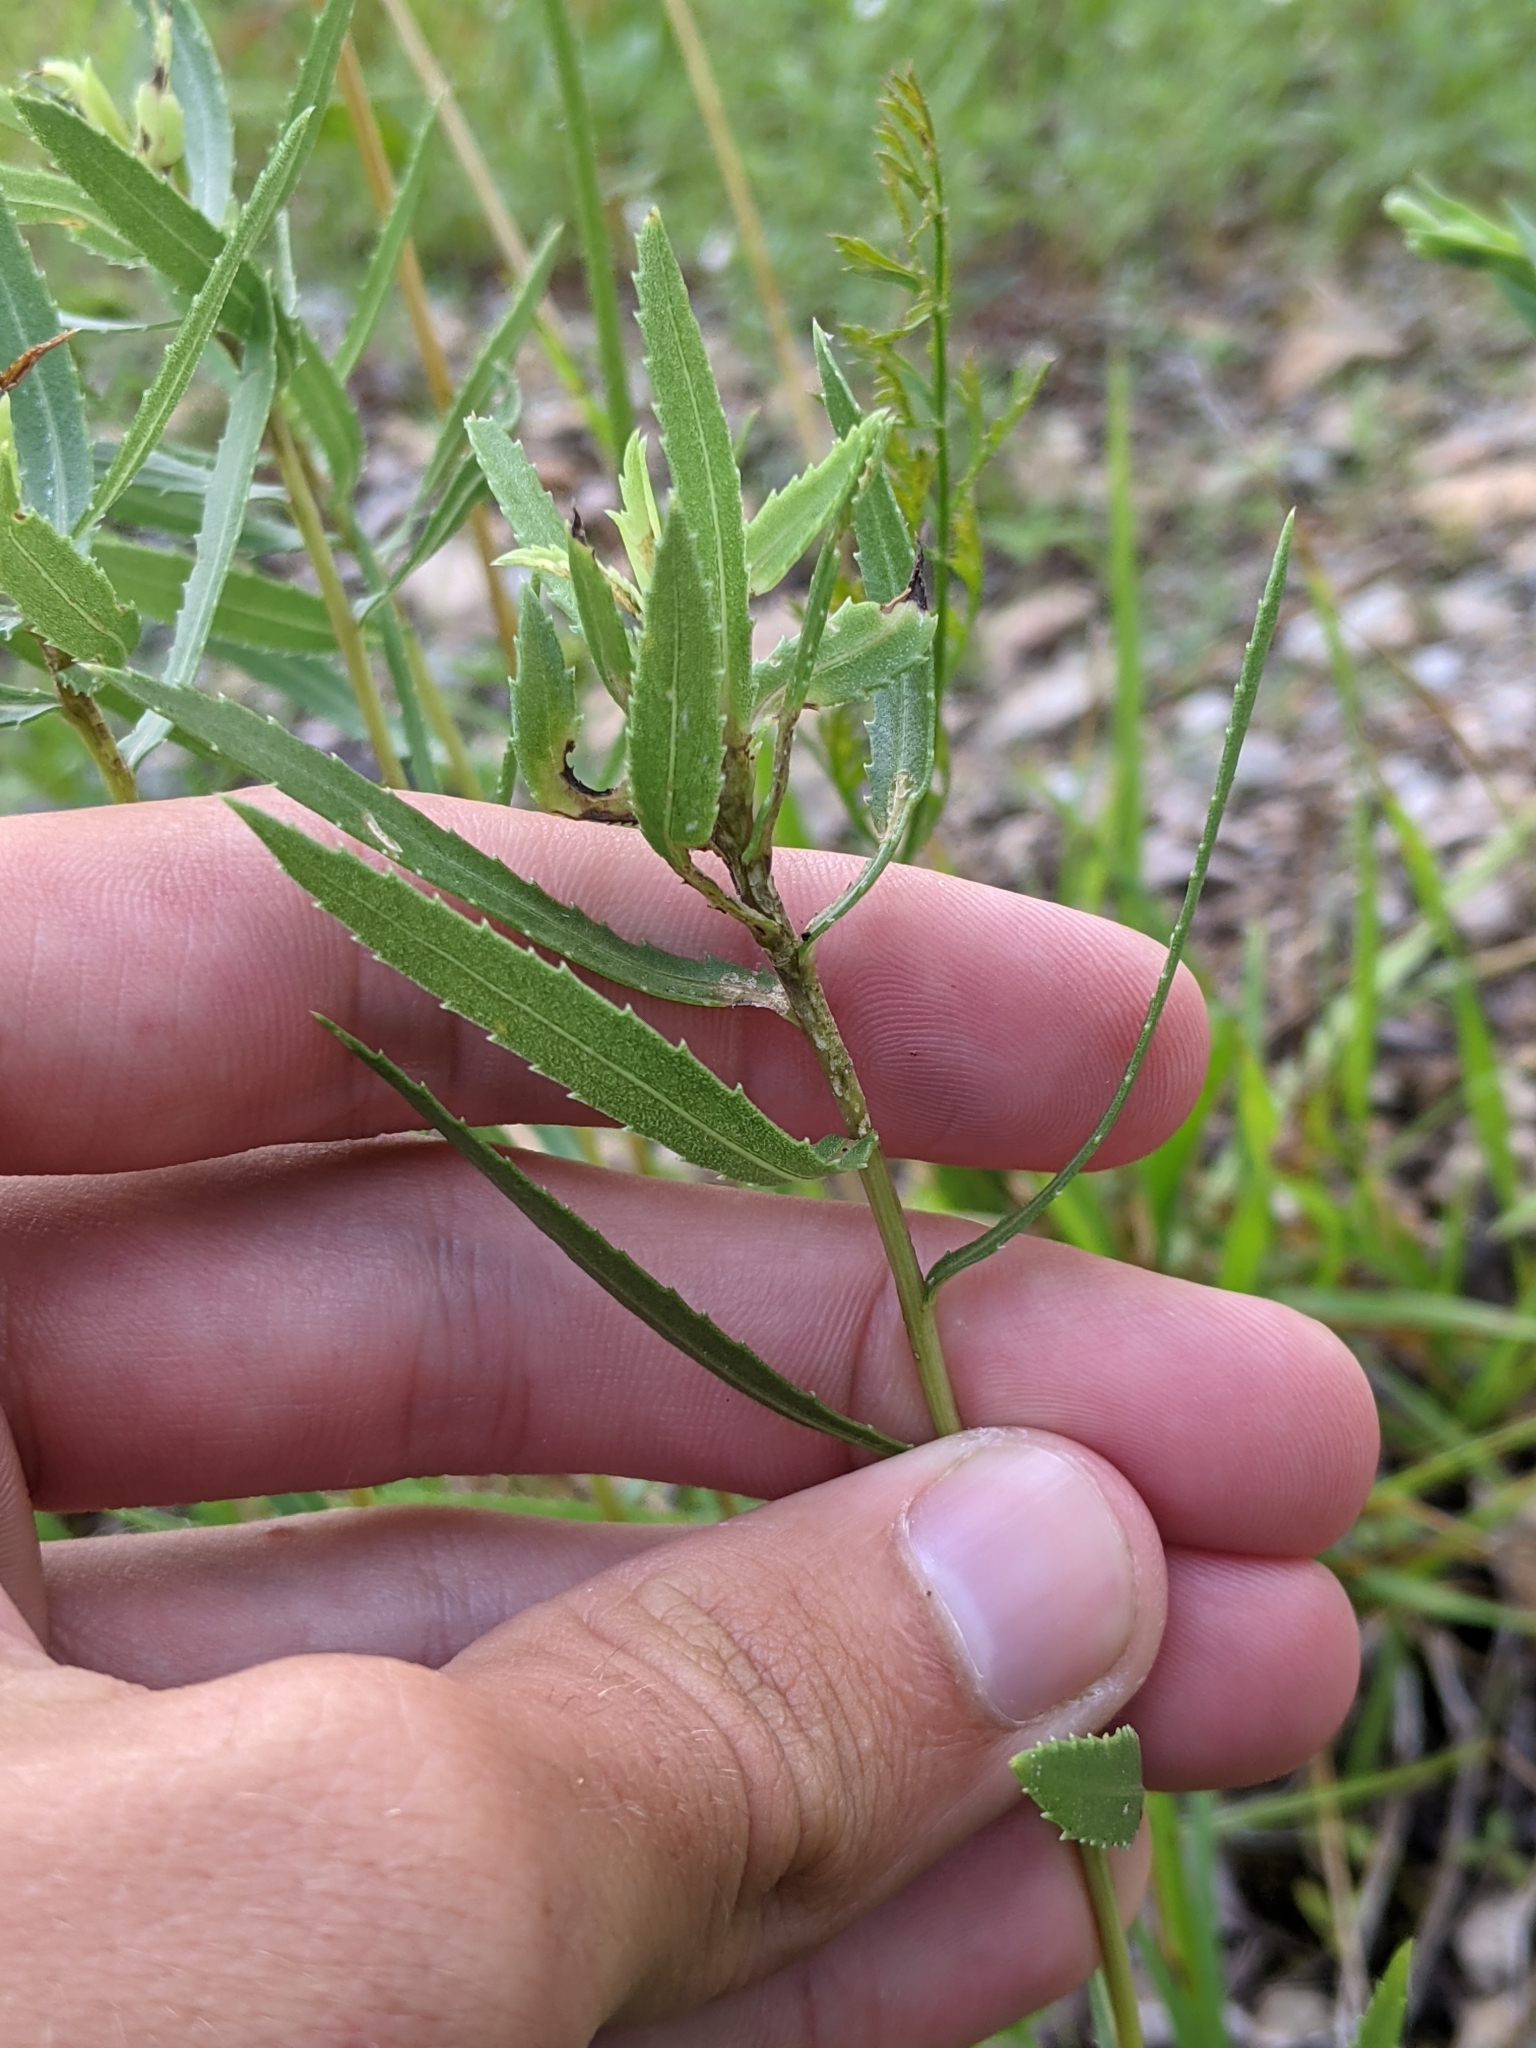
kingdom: Plantae
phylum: Tracheophyta
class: Magnoliopsida
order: Asterales
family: Asteraceae
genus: Grindelia
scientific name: Grindelia squarrosa
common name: Curly-cup gumweed
